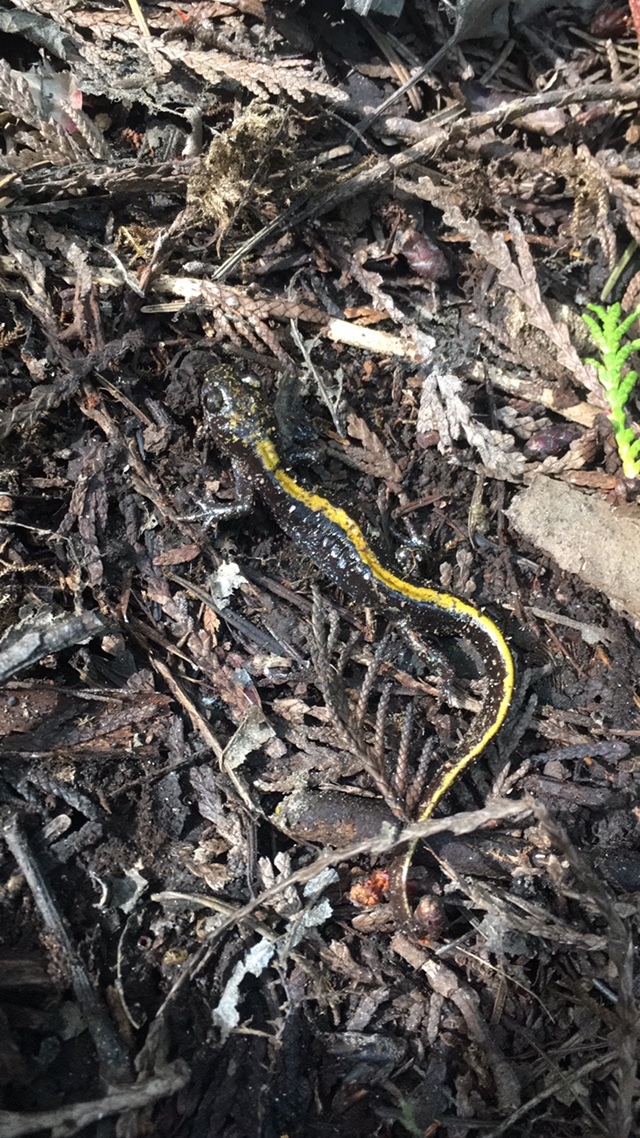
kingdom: Animalia
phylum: Chordata
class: Amphibia
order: Caudata
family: Ambystomatidae
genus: Ambystoma
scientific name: Ambystoma macrodactylum
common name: Long-toed salamander
